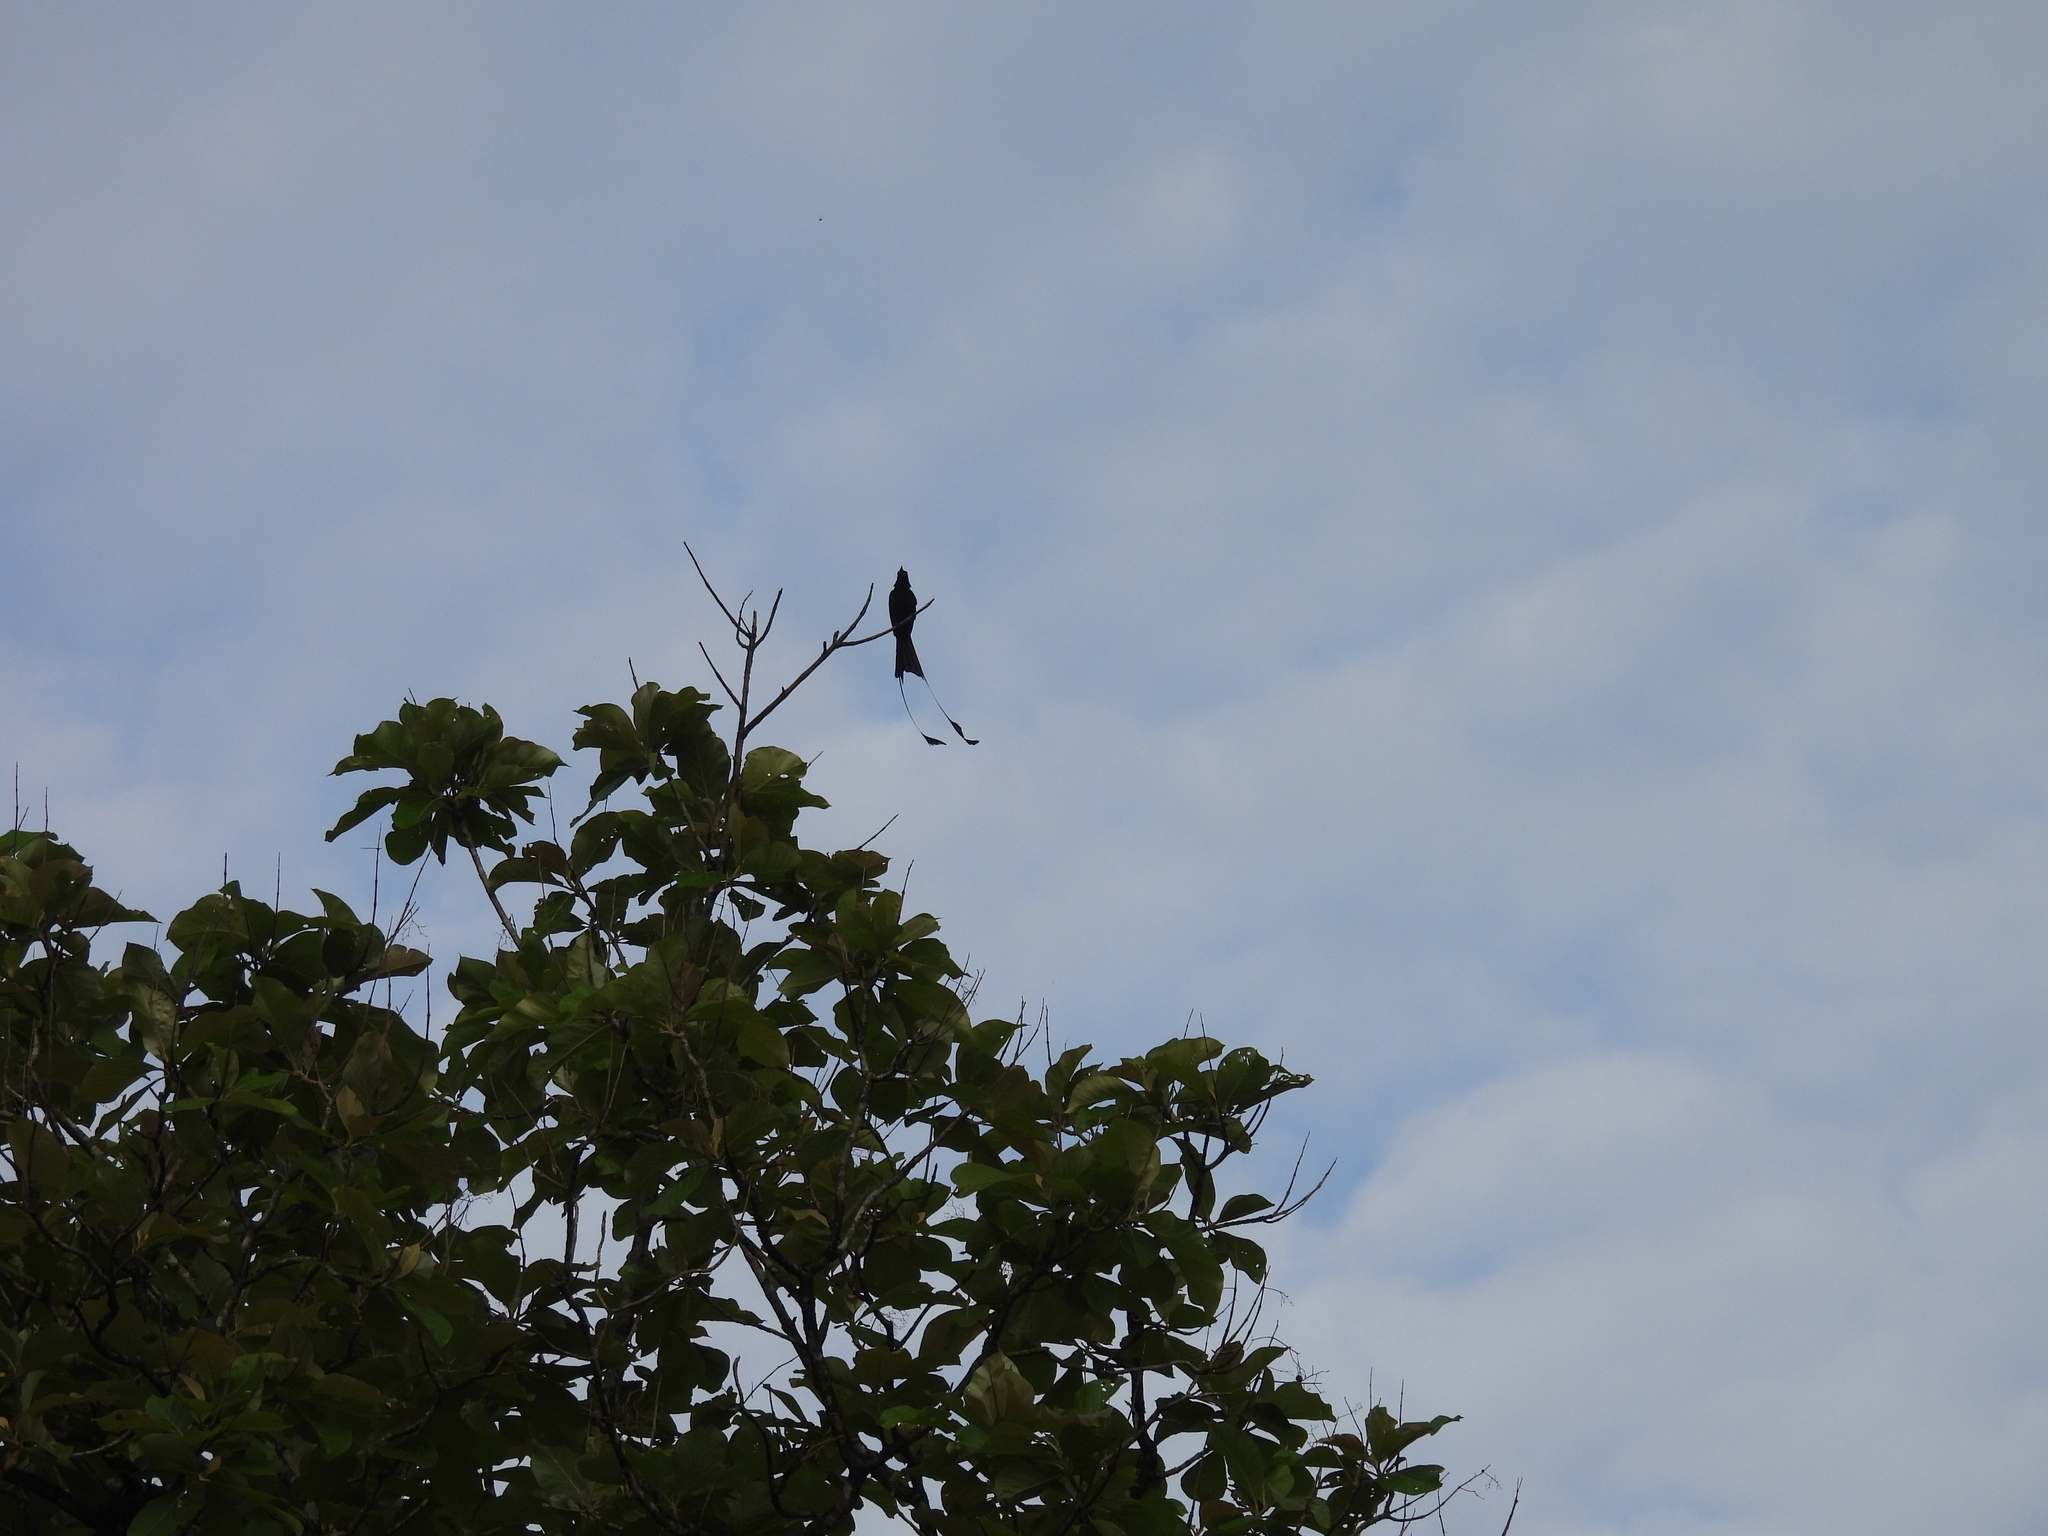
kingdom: Animalia
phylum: Chordata
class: Aves
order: Passeriformes
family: Dicruridae
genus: Dicrurus
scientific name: Dicrurus paradiseus
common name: Greater racket-tailed drongo
